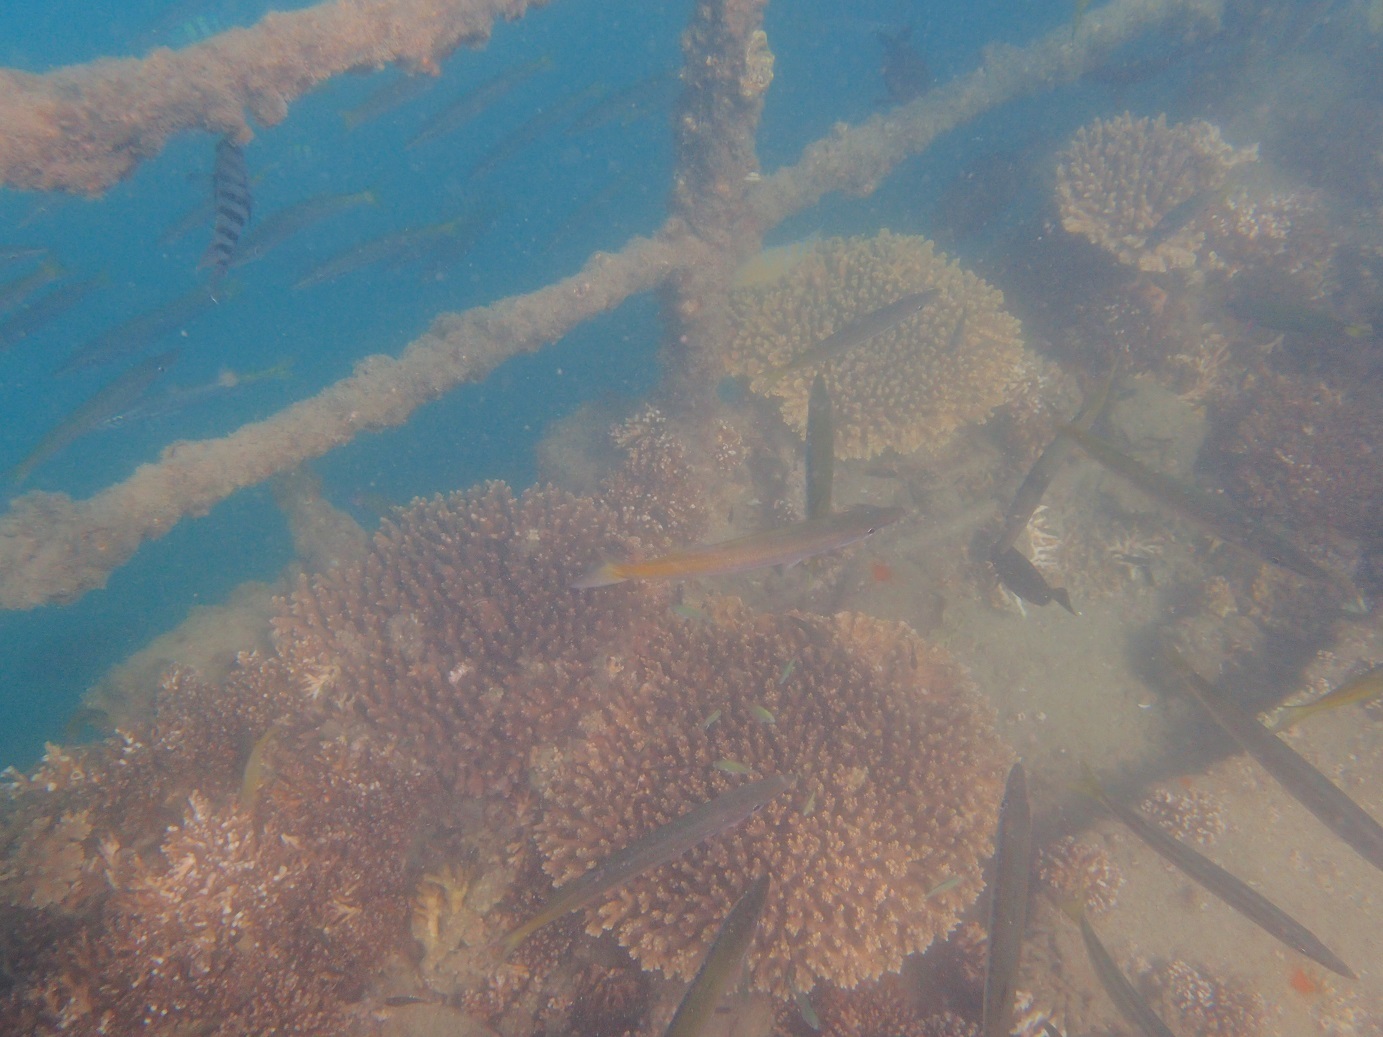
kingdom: Animalia
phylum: Chordata
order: Perciformes
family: Sphyraenidae
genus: Sphyraena
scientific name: Sphyraena flavicauda
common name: Yellowtail barracuda
